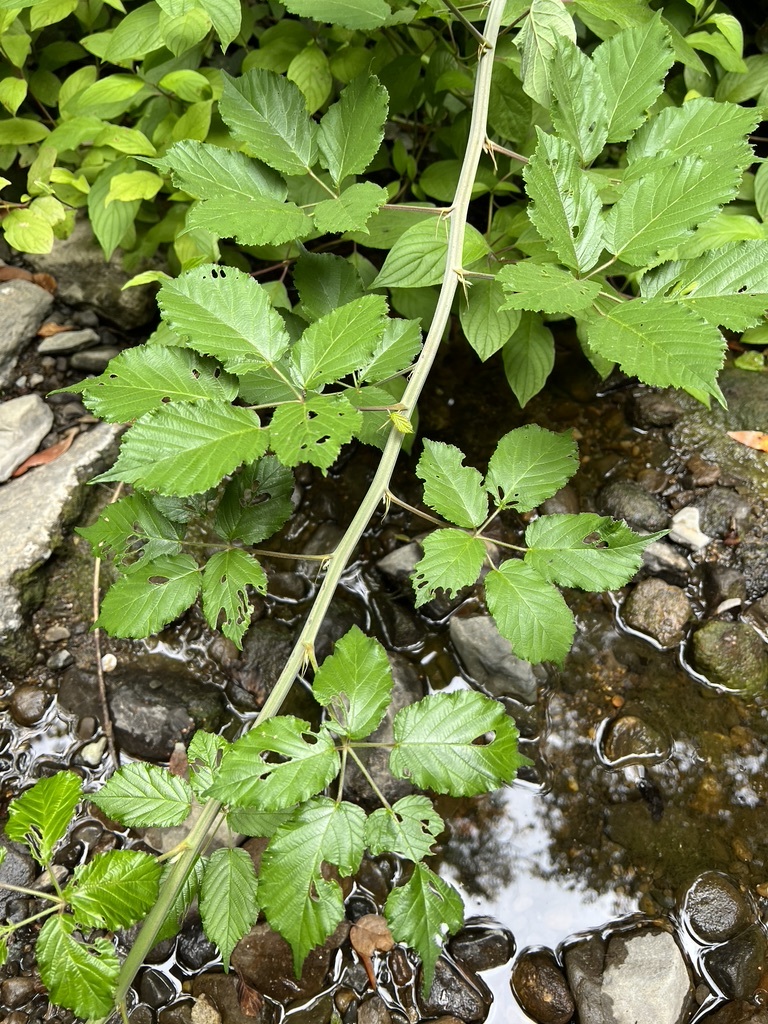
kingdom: Plantae
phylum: Tracheophyta
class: Magnoliopsida
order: Rosales
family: Rosaceae
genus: Rubus
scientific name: Rubus ulmifolius
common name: Elmleaf blackberry
